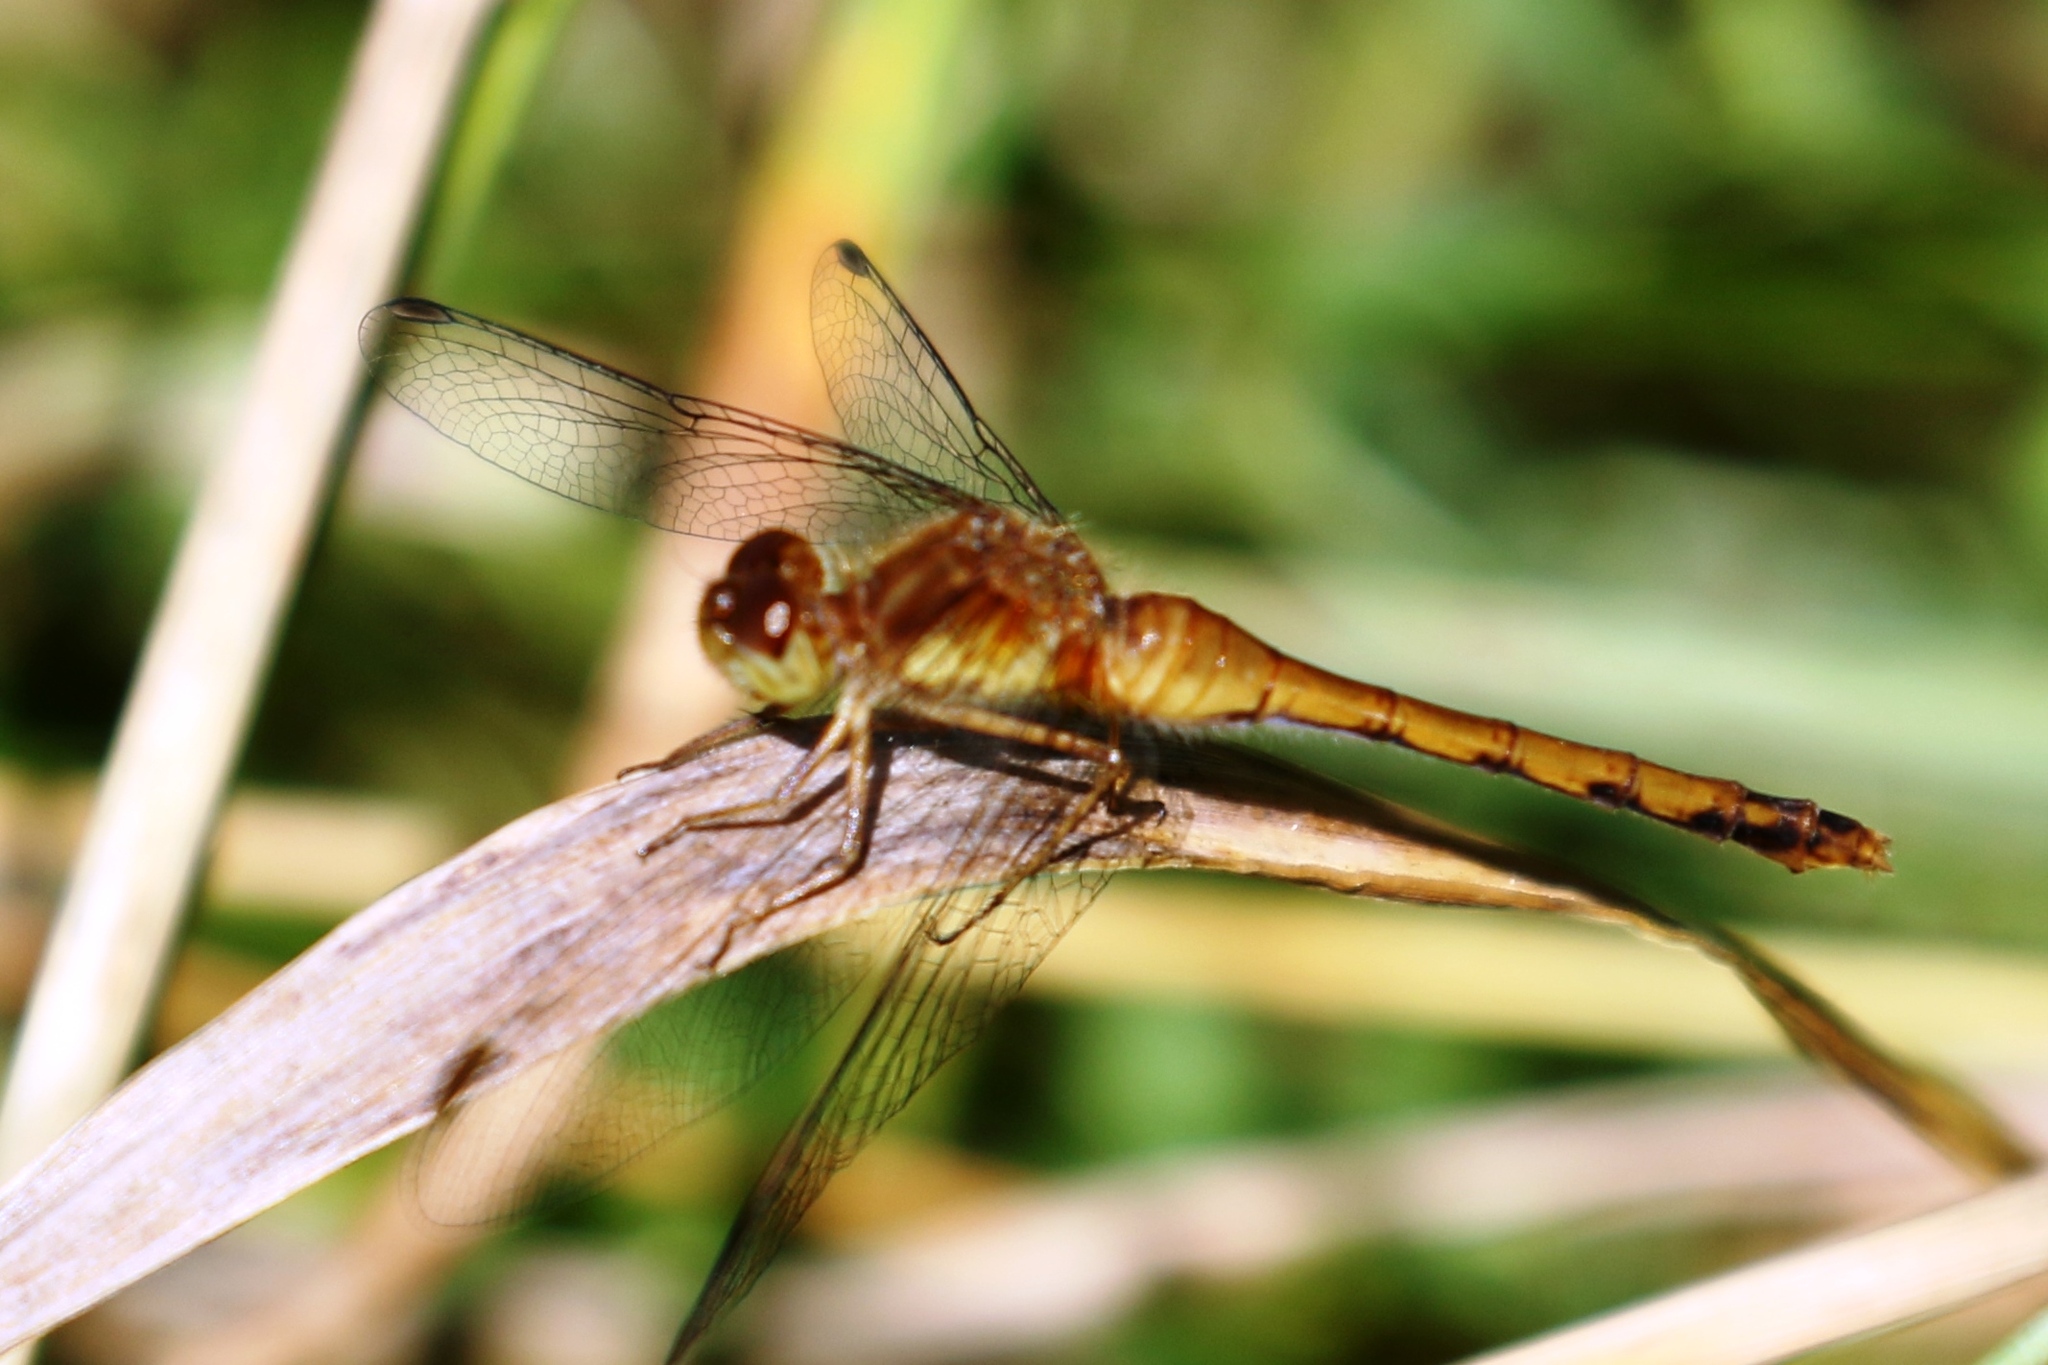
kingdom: Animalia
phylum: Arthropoda
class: Insecta
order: Odonata
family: Libellulidae
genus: Sympetrum
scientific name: Sympetrum vicinum
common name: Autumn meadowhawk
